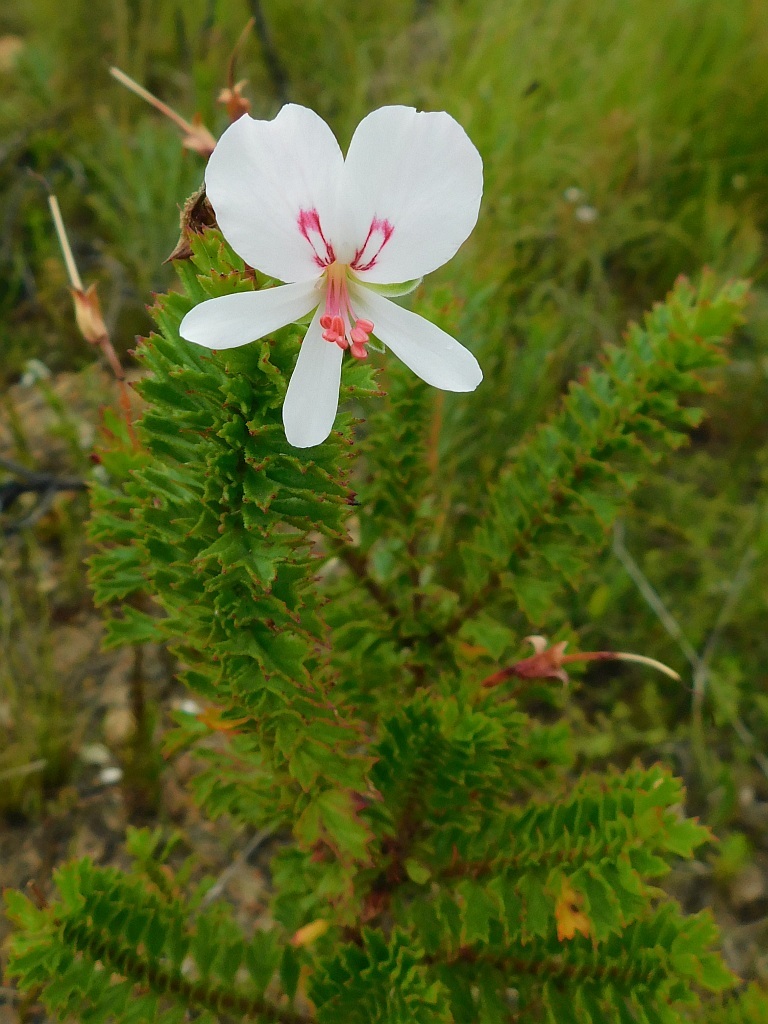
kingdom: Plantae
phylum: Tracheophyta
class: Magnoliopsida
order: Geraniales
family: Geraniaceae
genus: Pelargonium
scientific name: Pelargonium hermaniifolium
